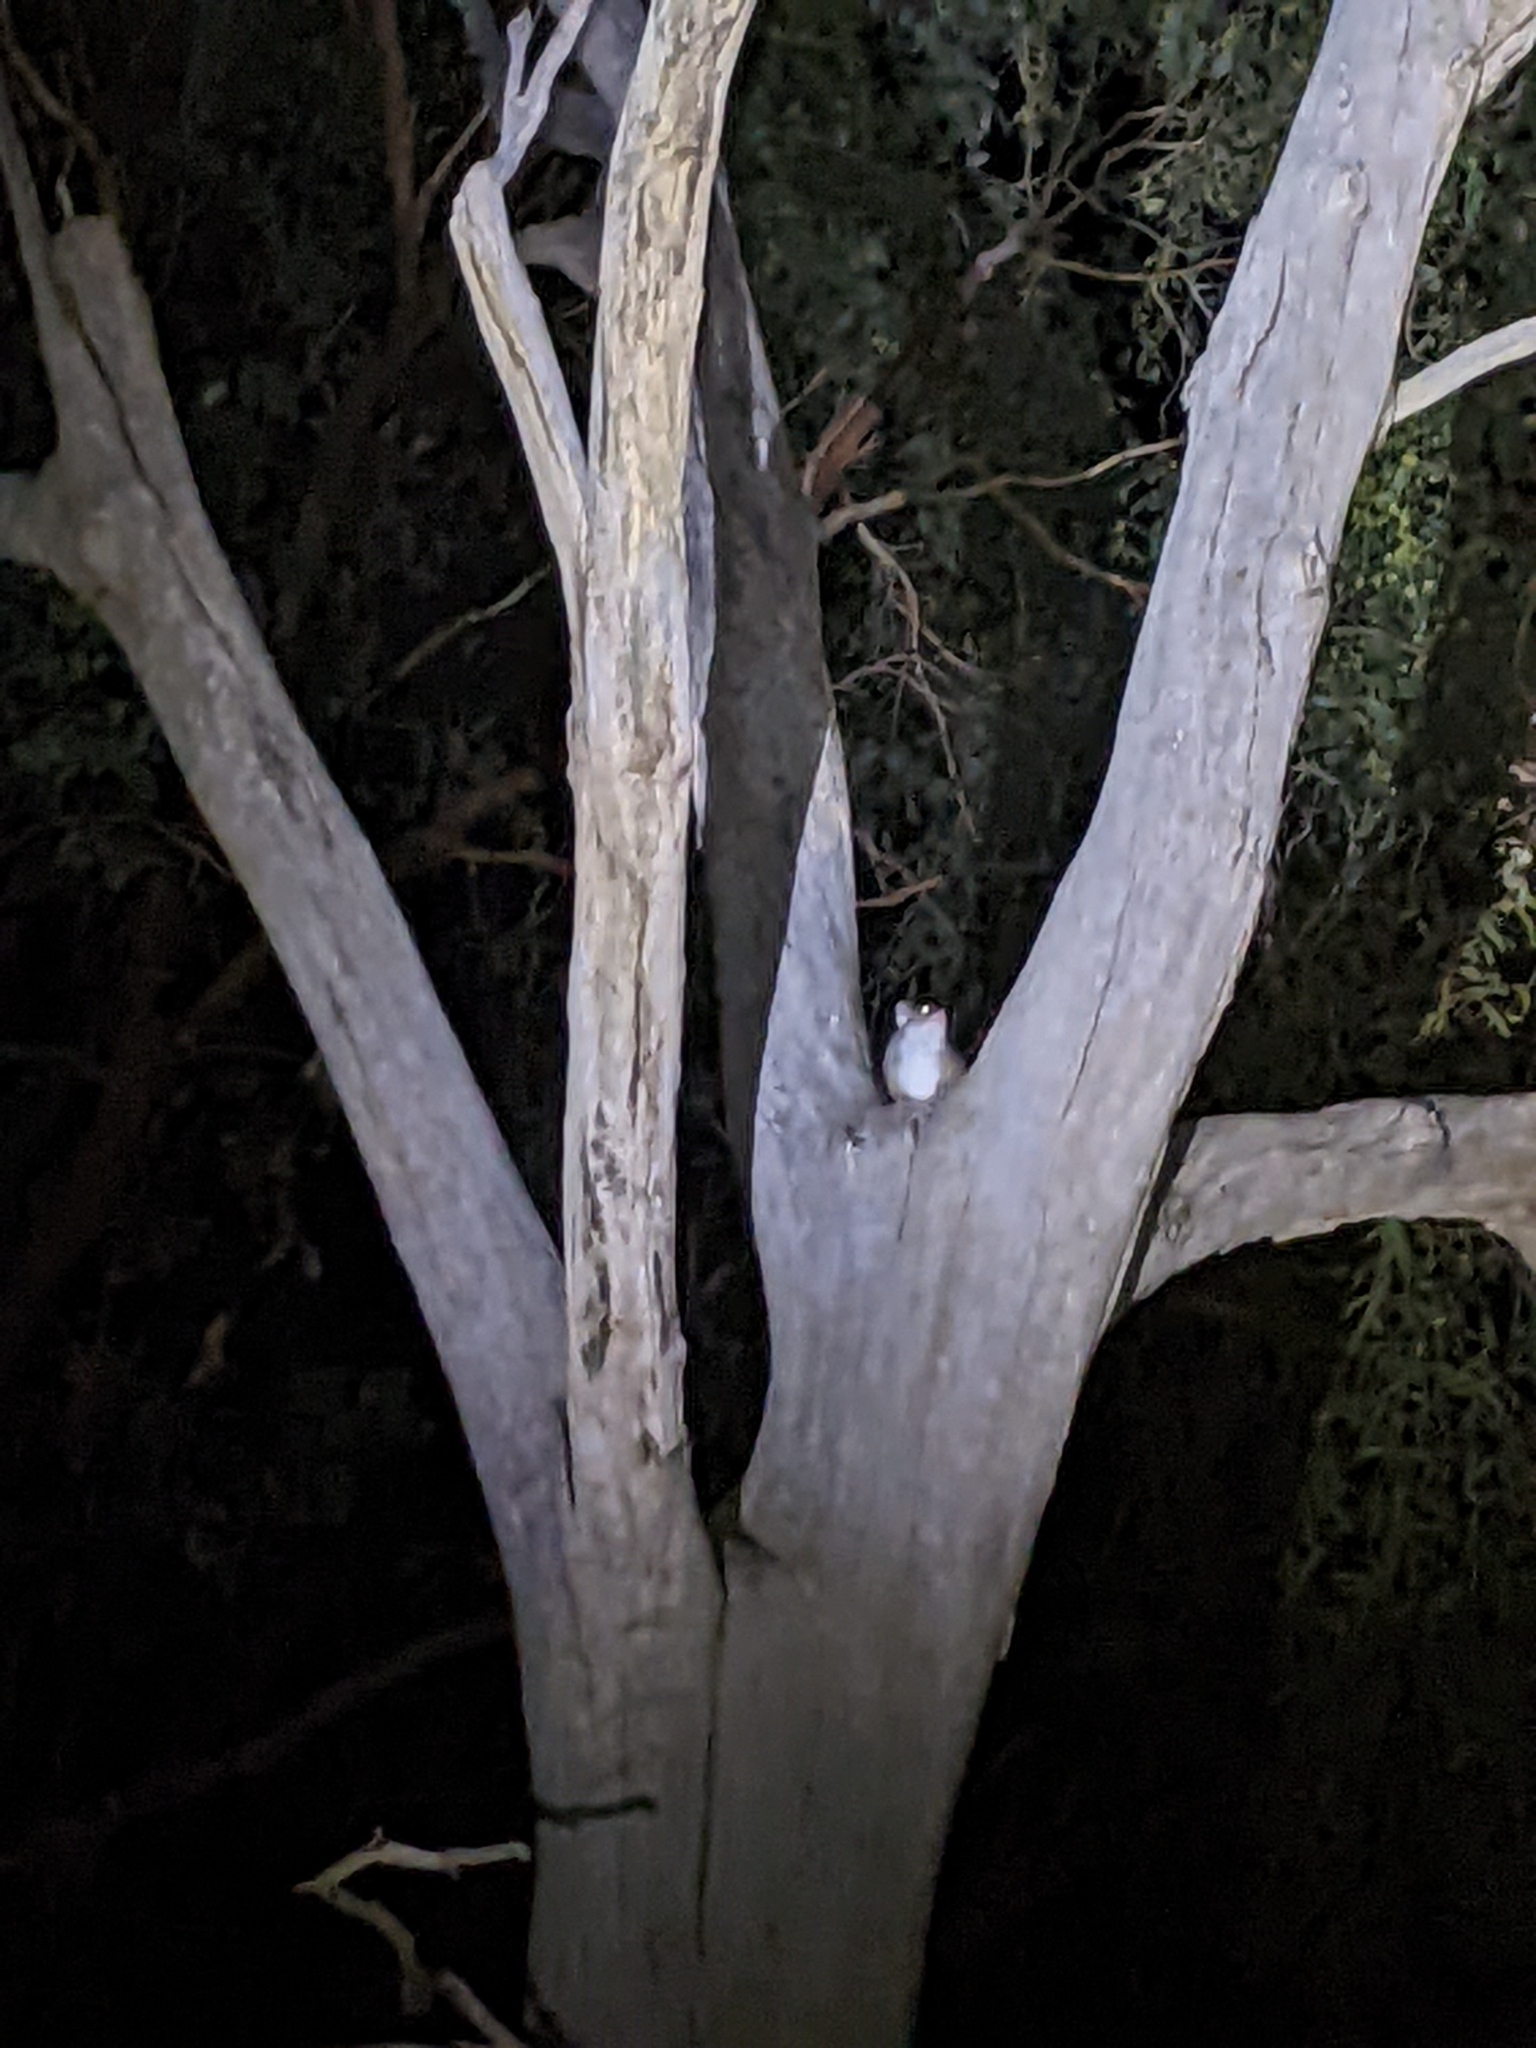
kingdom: Animalia
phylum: Chordata
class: Mammalia
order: Diprotodontia
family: Pseudocheiridae
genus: Pseudocheirus
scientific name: Pseudocheirus peregrinus
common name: Common ringtail possum
